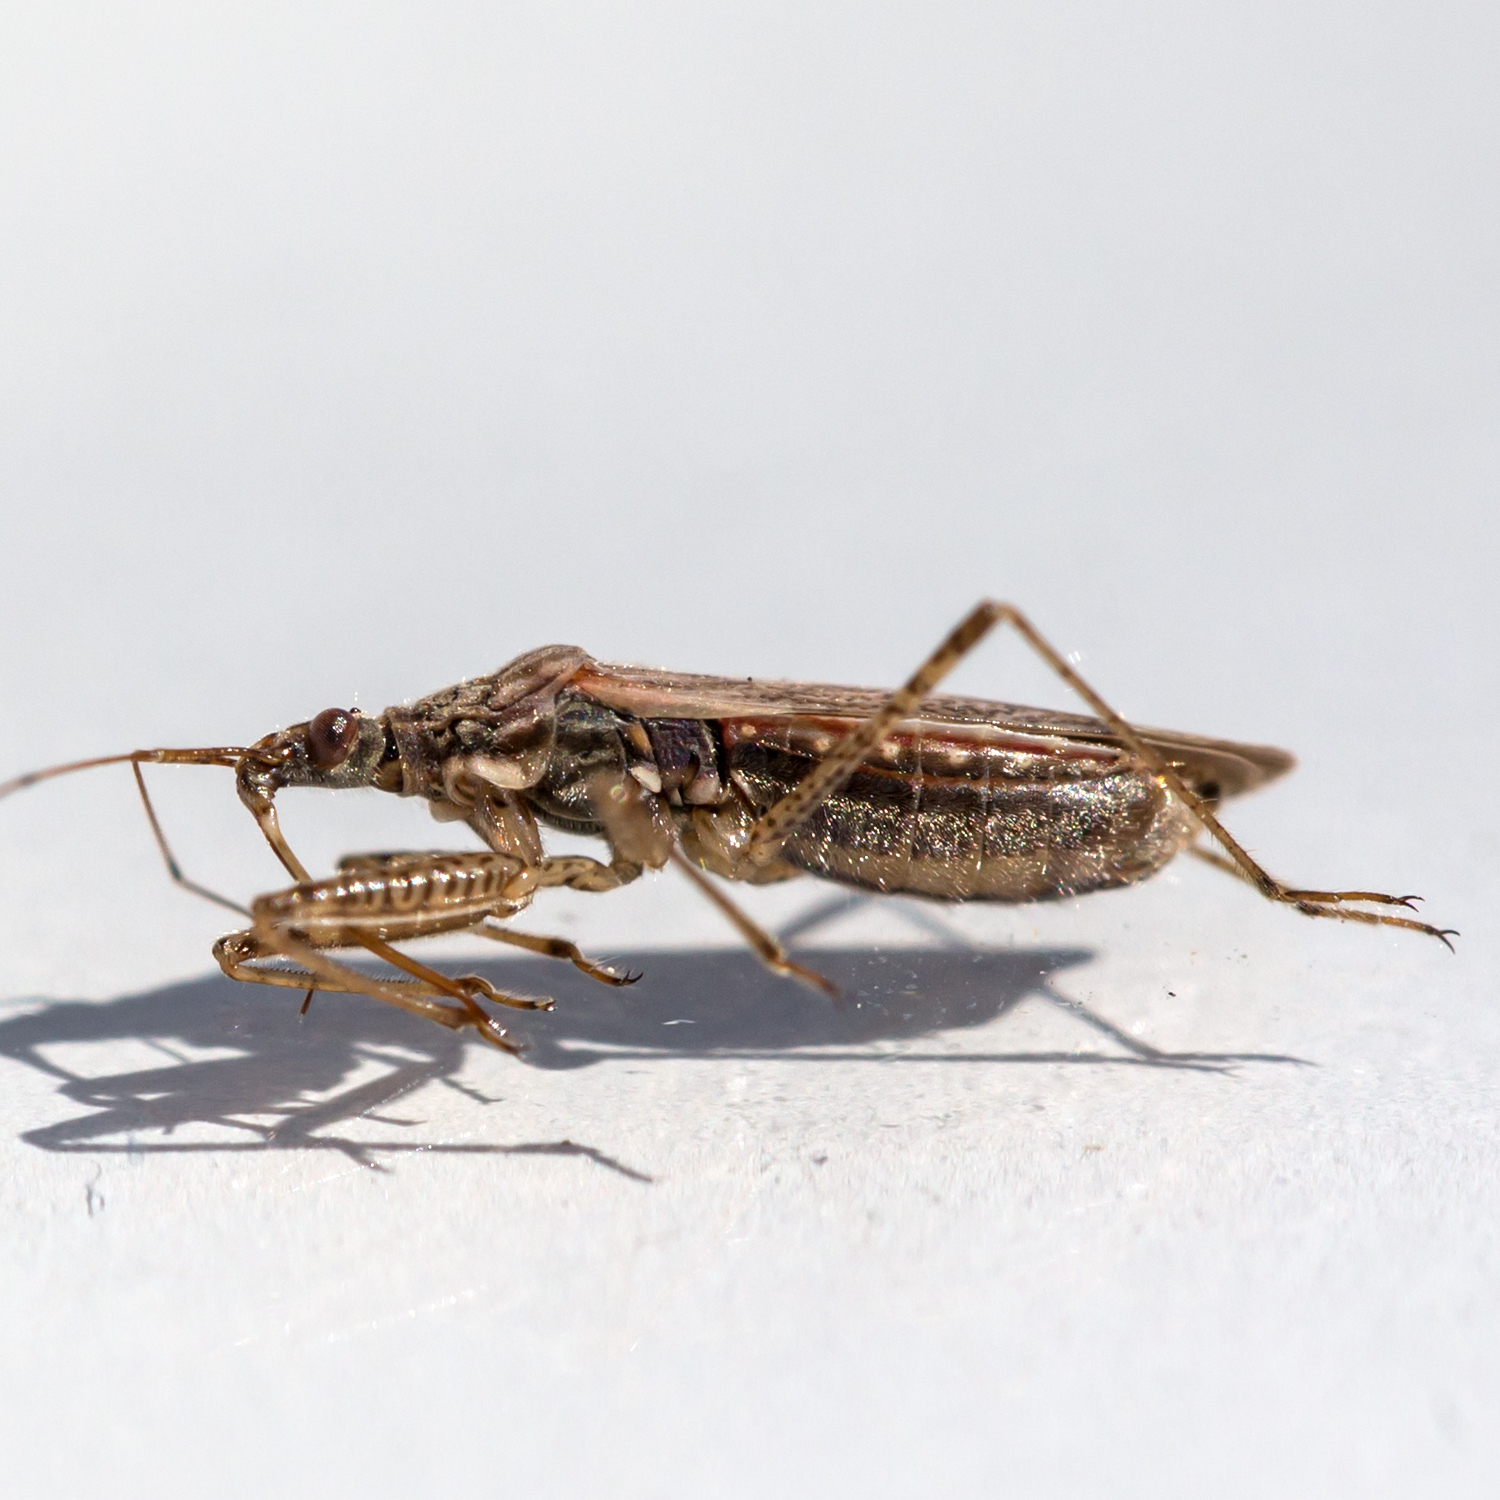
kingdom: Animalia
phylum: Arthropoda
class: Insecta
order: Hemiptera
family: Nabidae
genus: Nabis
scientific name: Nabis roseipennis
